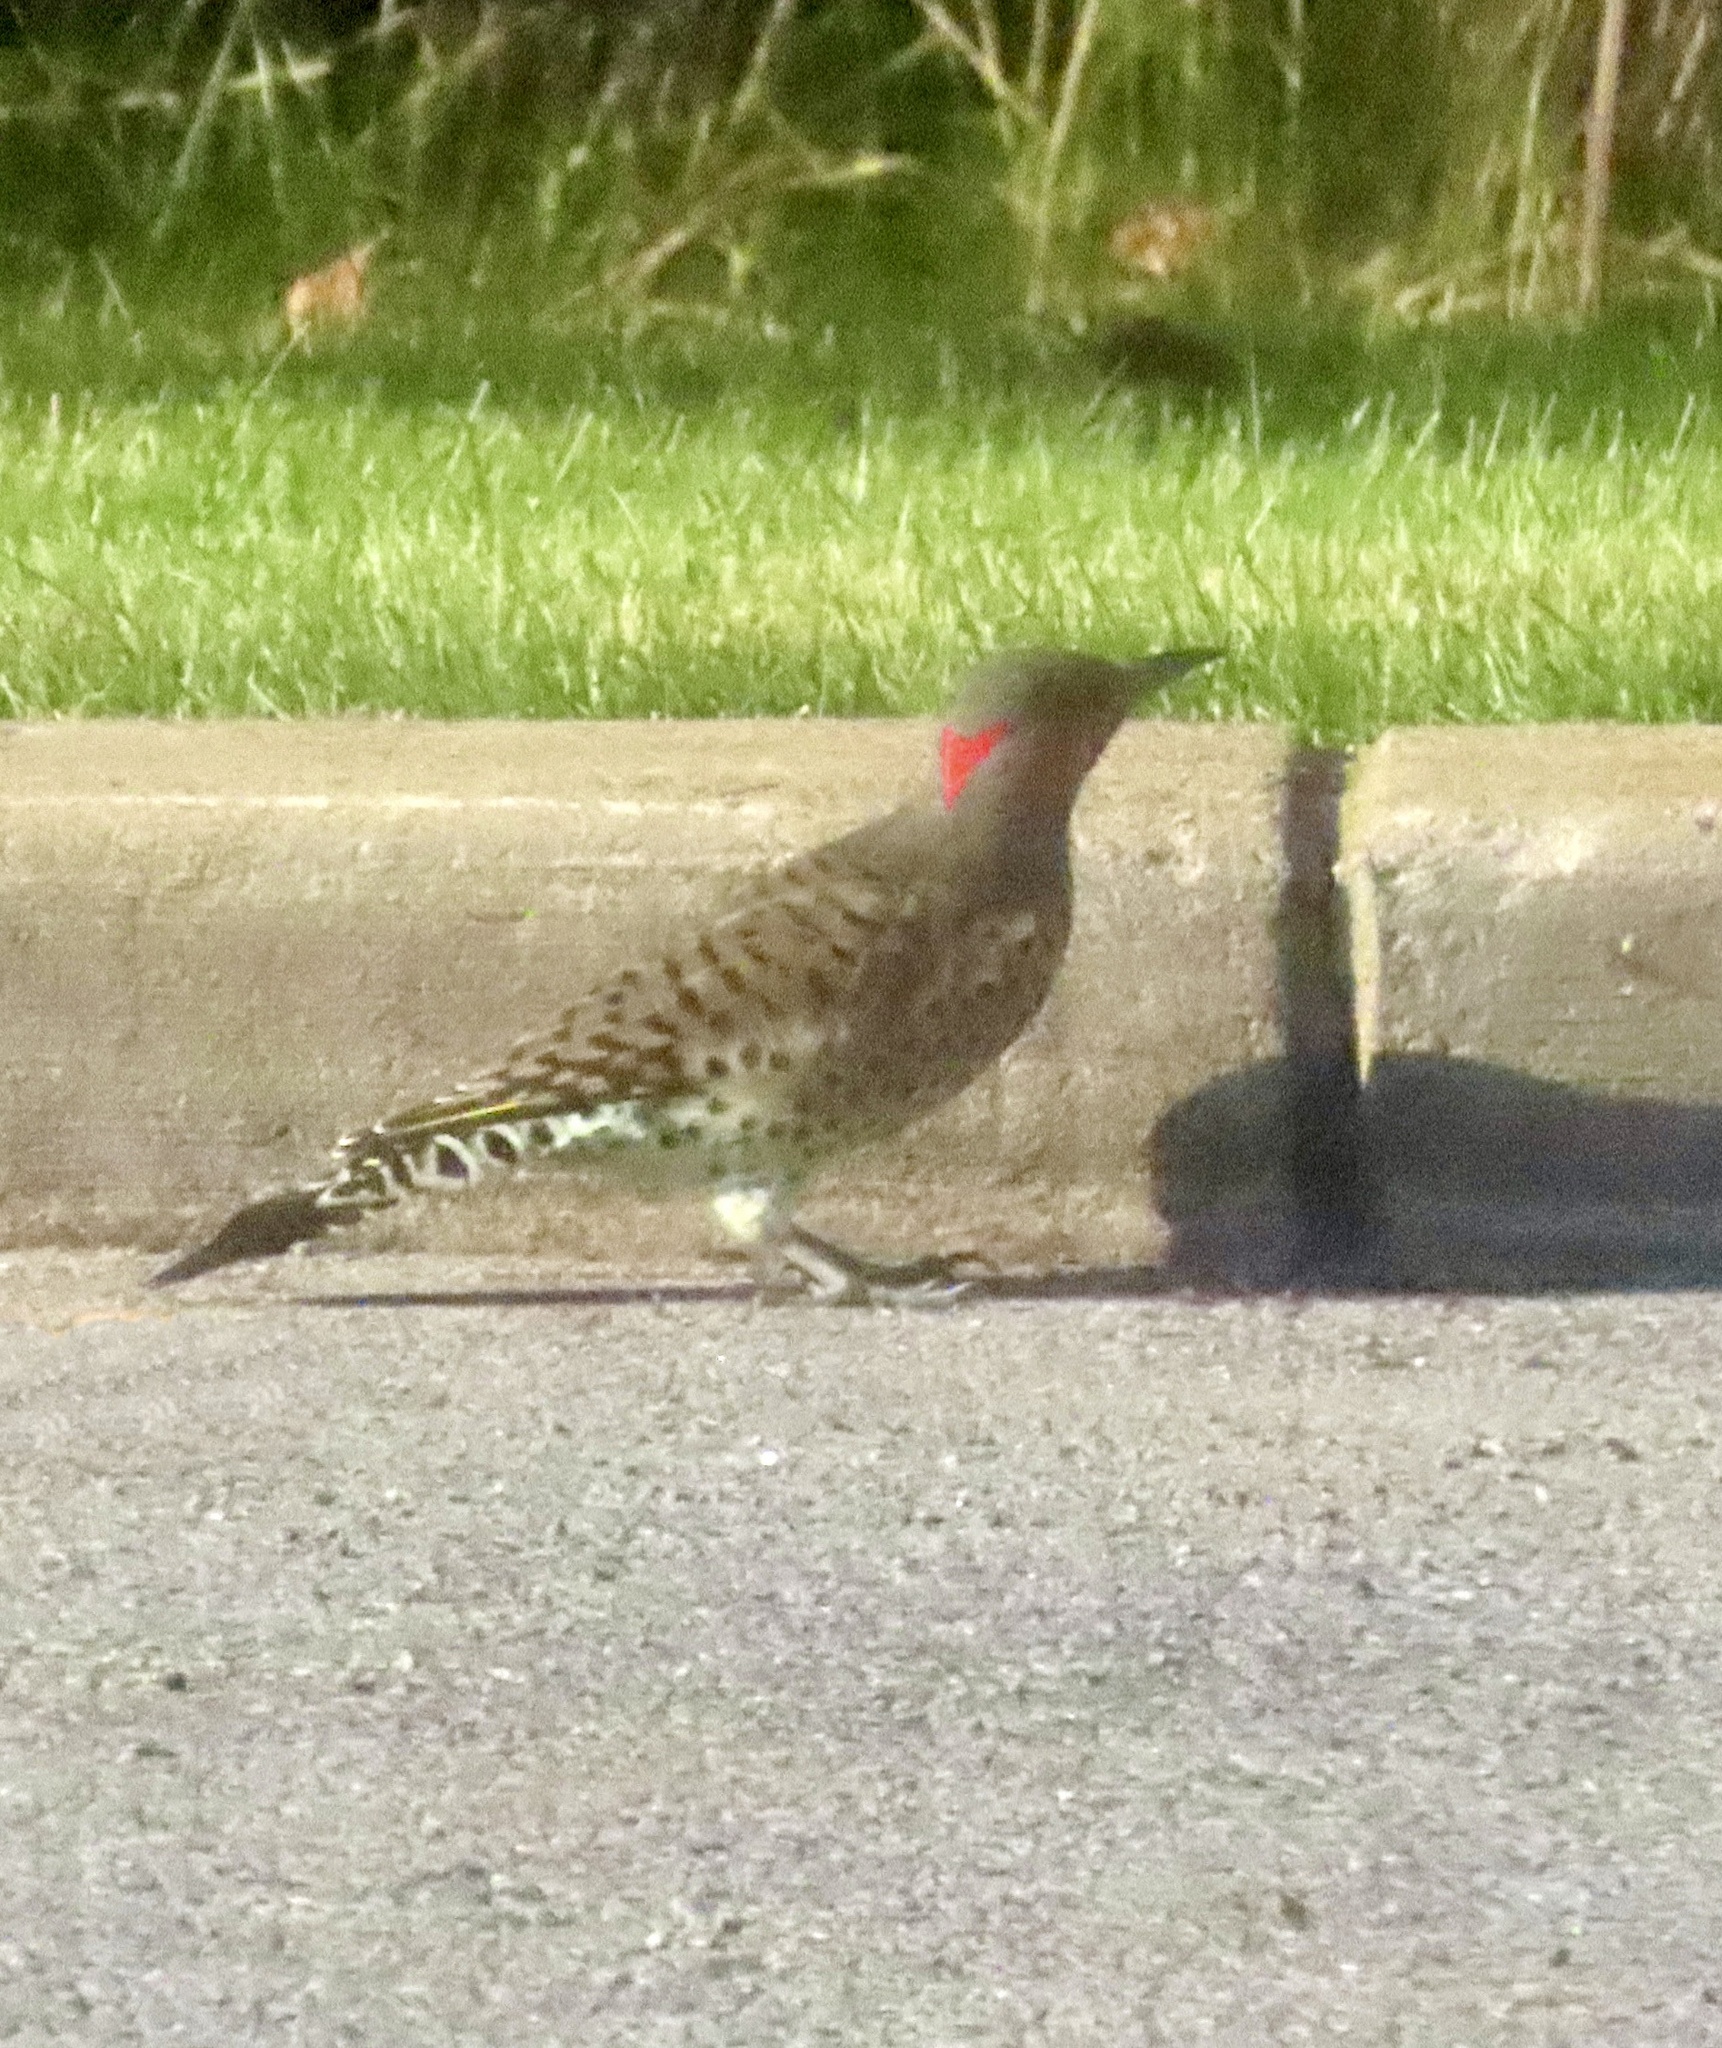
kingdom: Animalia
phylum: Chordata
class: Aves
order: Piciformes
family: Picidae
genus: Colaptes
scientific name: Colaptes auratus
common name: Northern flicker
